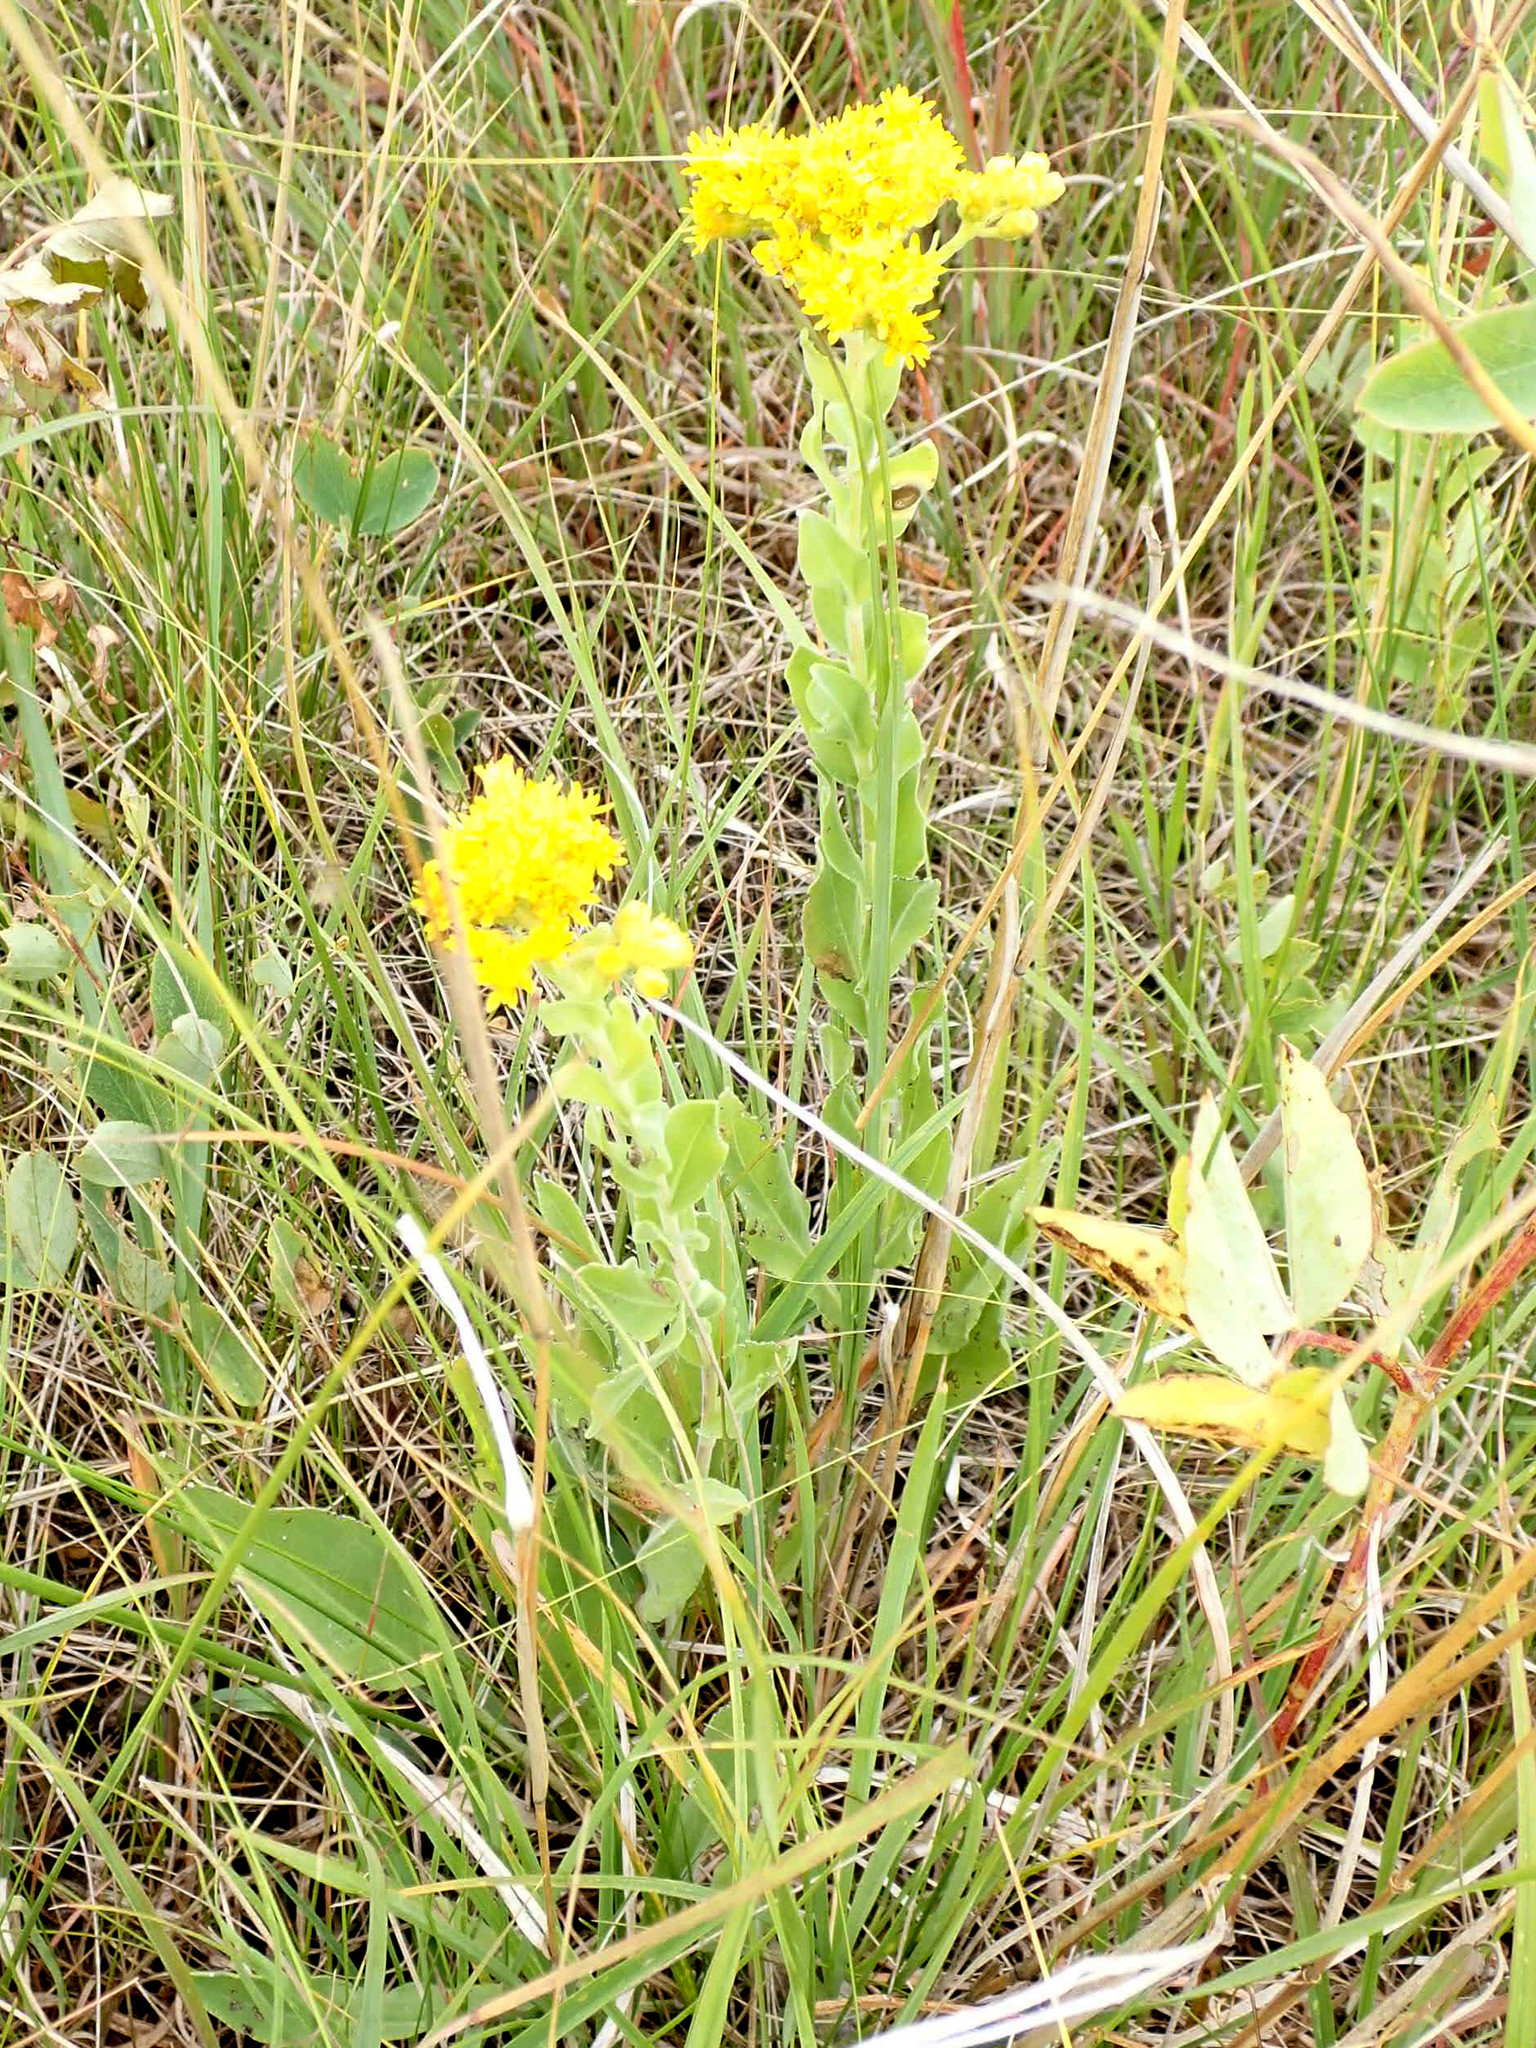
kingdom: Plantae
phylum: Tracheophyta
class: Magnoliopsida
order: Asterales
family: Asteraceae
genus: Solidago
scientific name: Solidago rigida
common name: Rigid goldenrod
